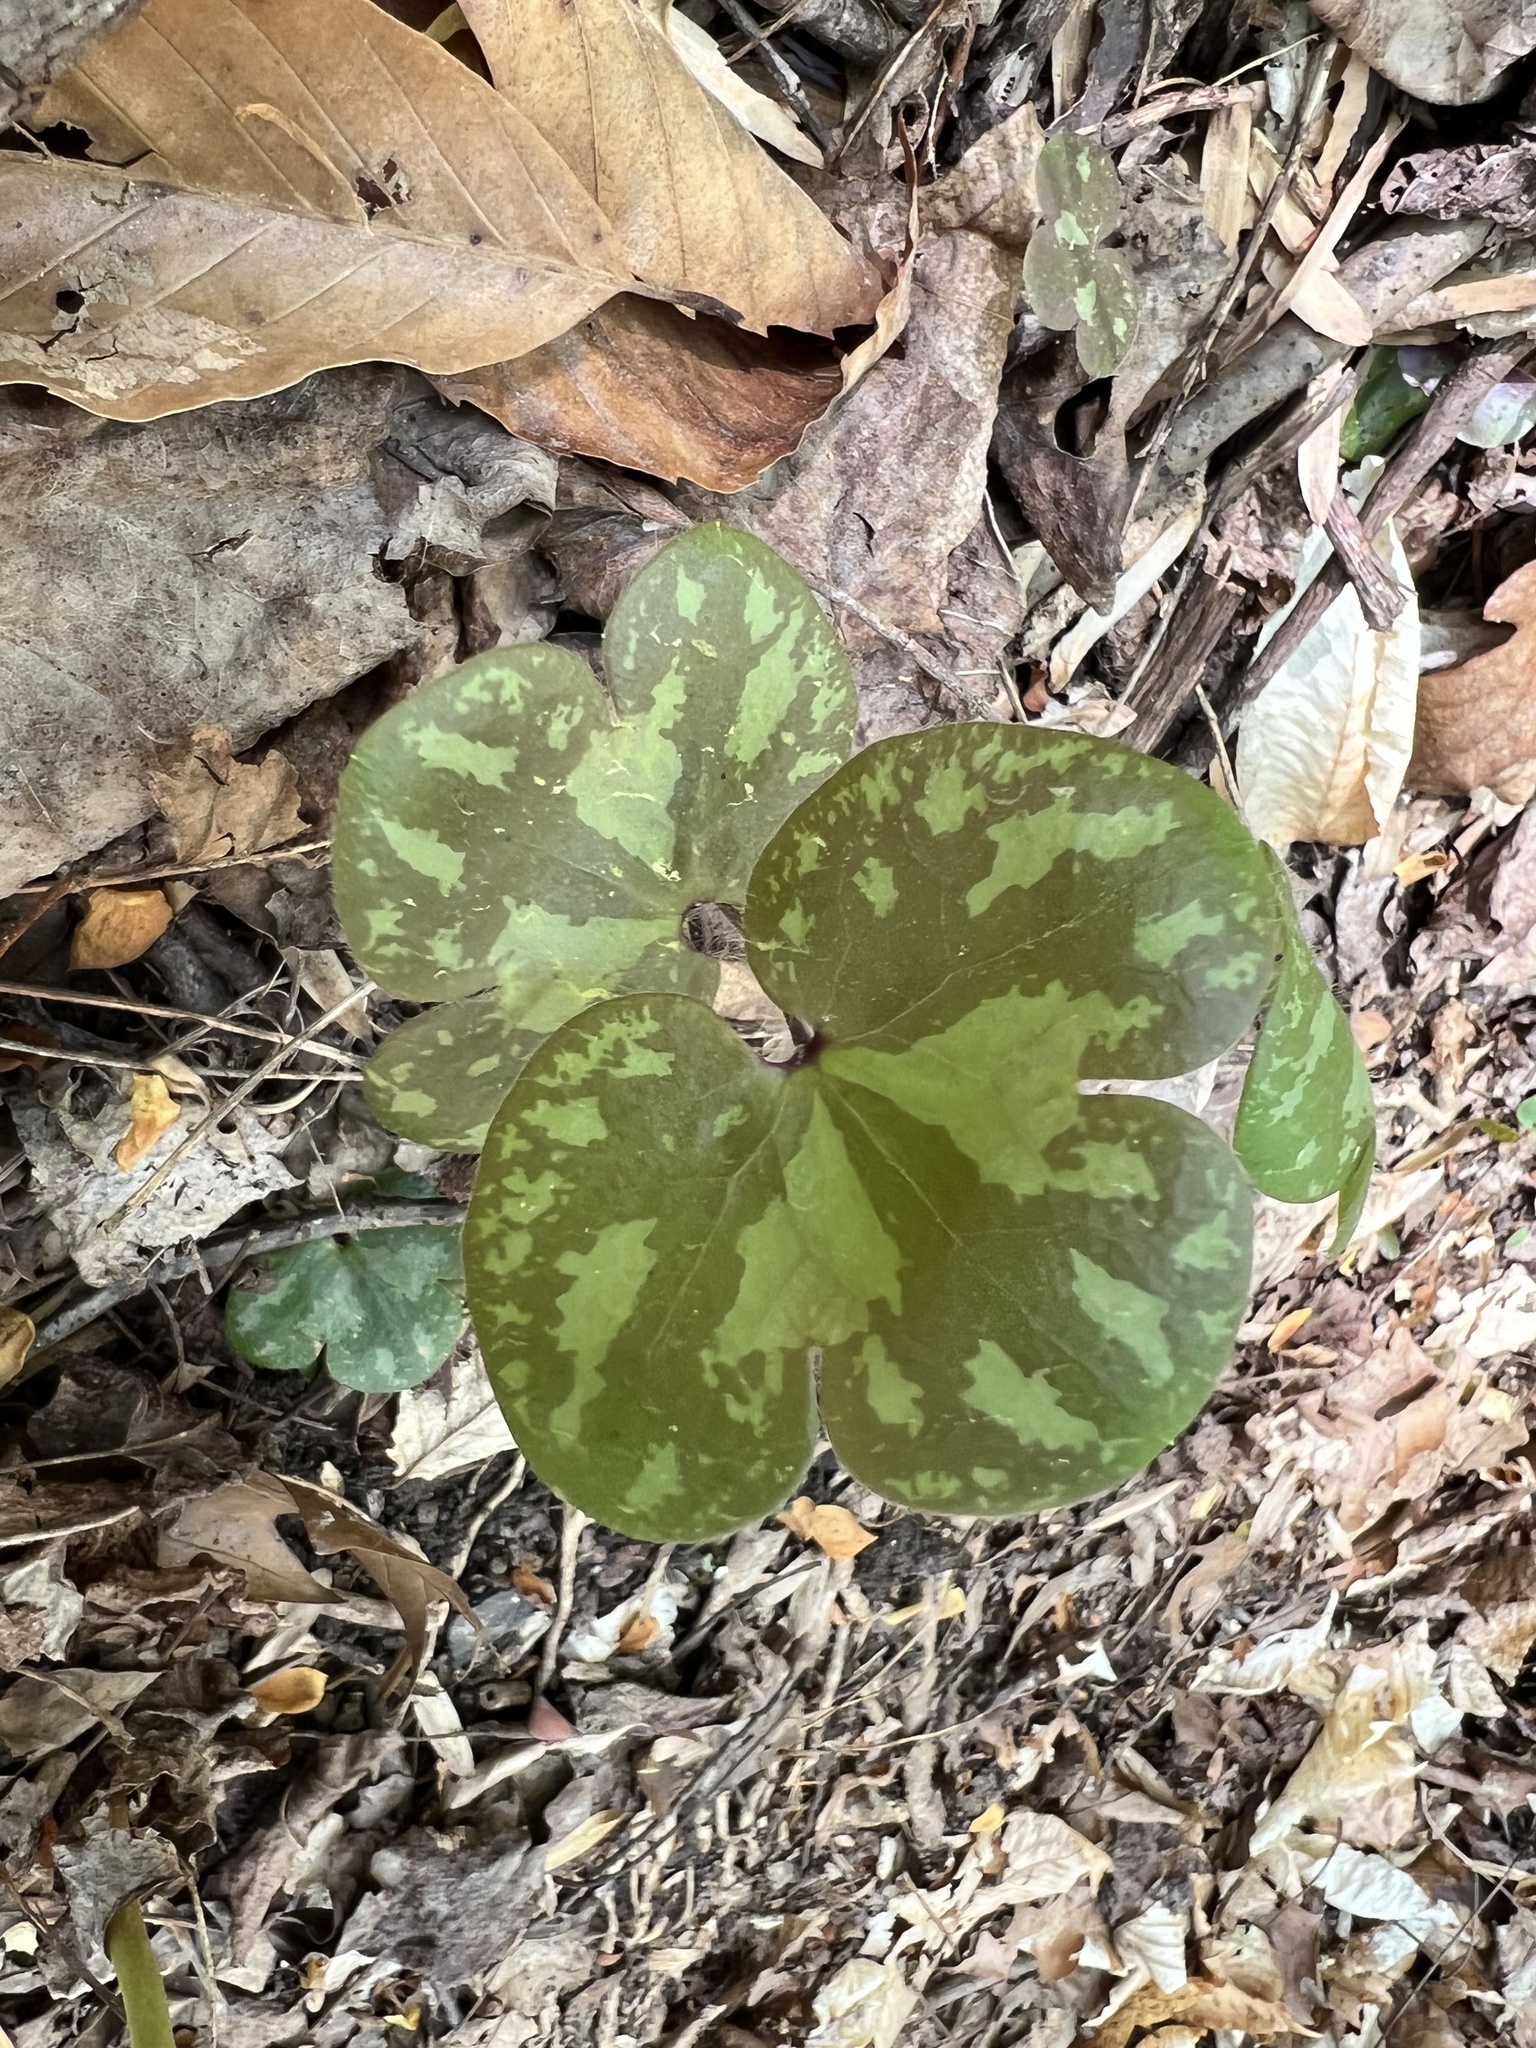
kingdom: Plantae
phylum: Tracheophyta
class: Magnoliopsida
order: Ranunculales
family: Ranunculaceae
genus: Hepatica
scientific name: Hepatica americana
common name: American hepatica
